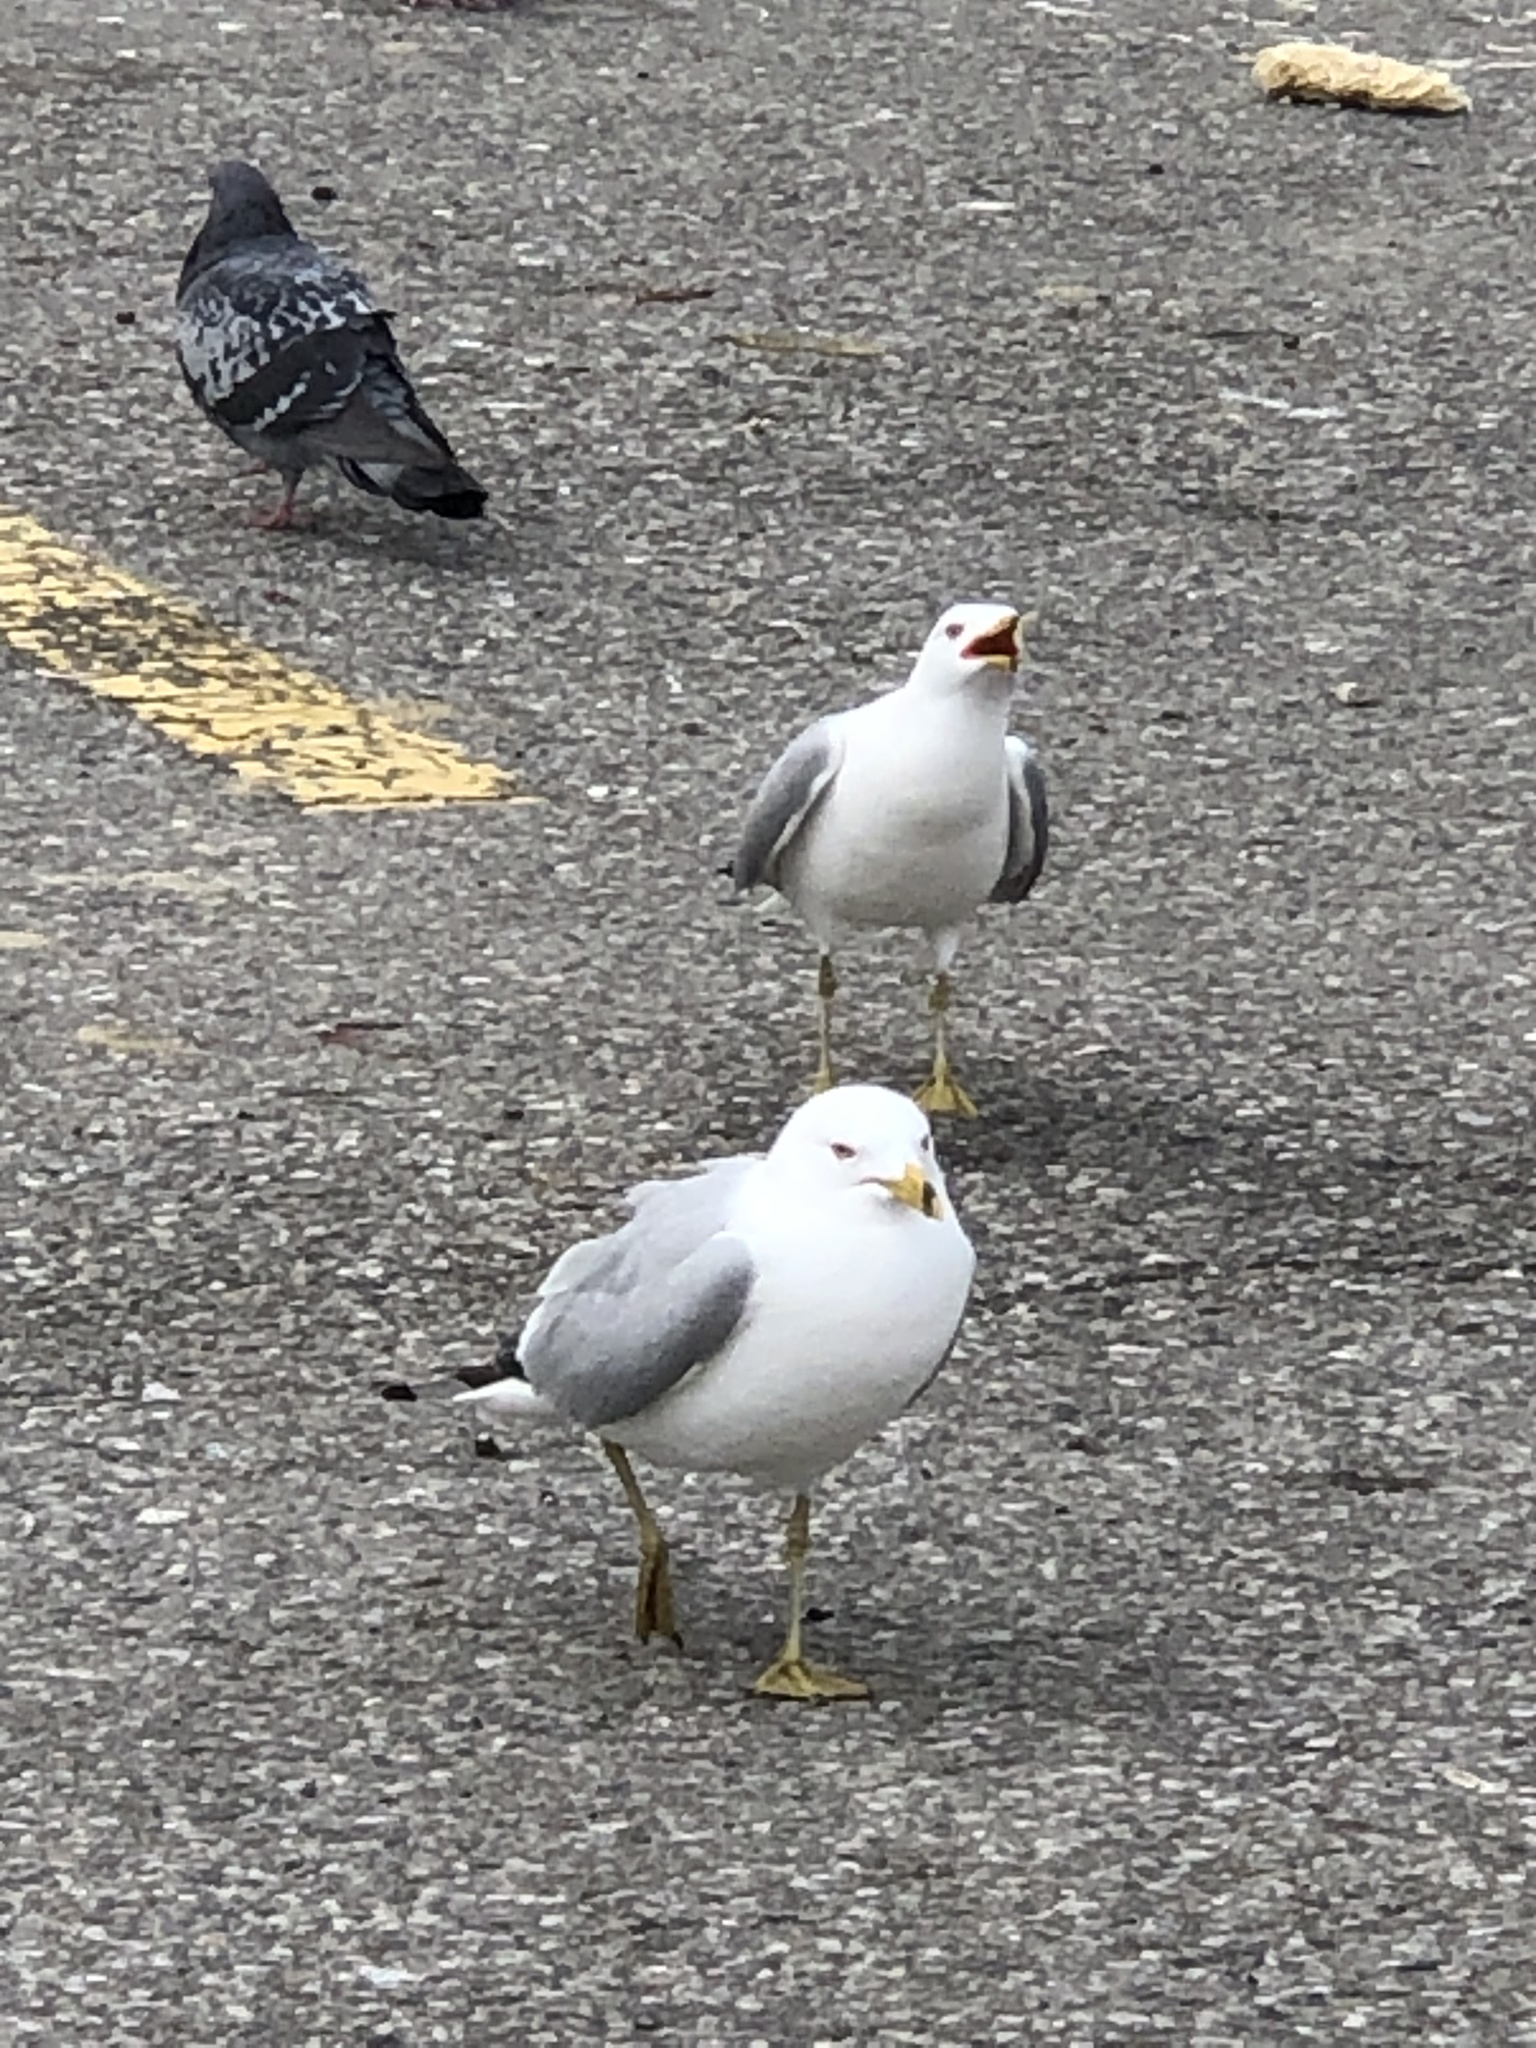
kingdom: Animalia
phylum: Chordata
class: Aves
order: Charadriiformes
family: Laridae
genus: Larus
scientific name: Larus delawarensis
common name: Ring-billed gull
